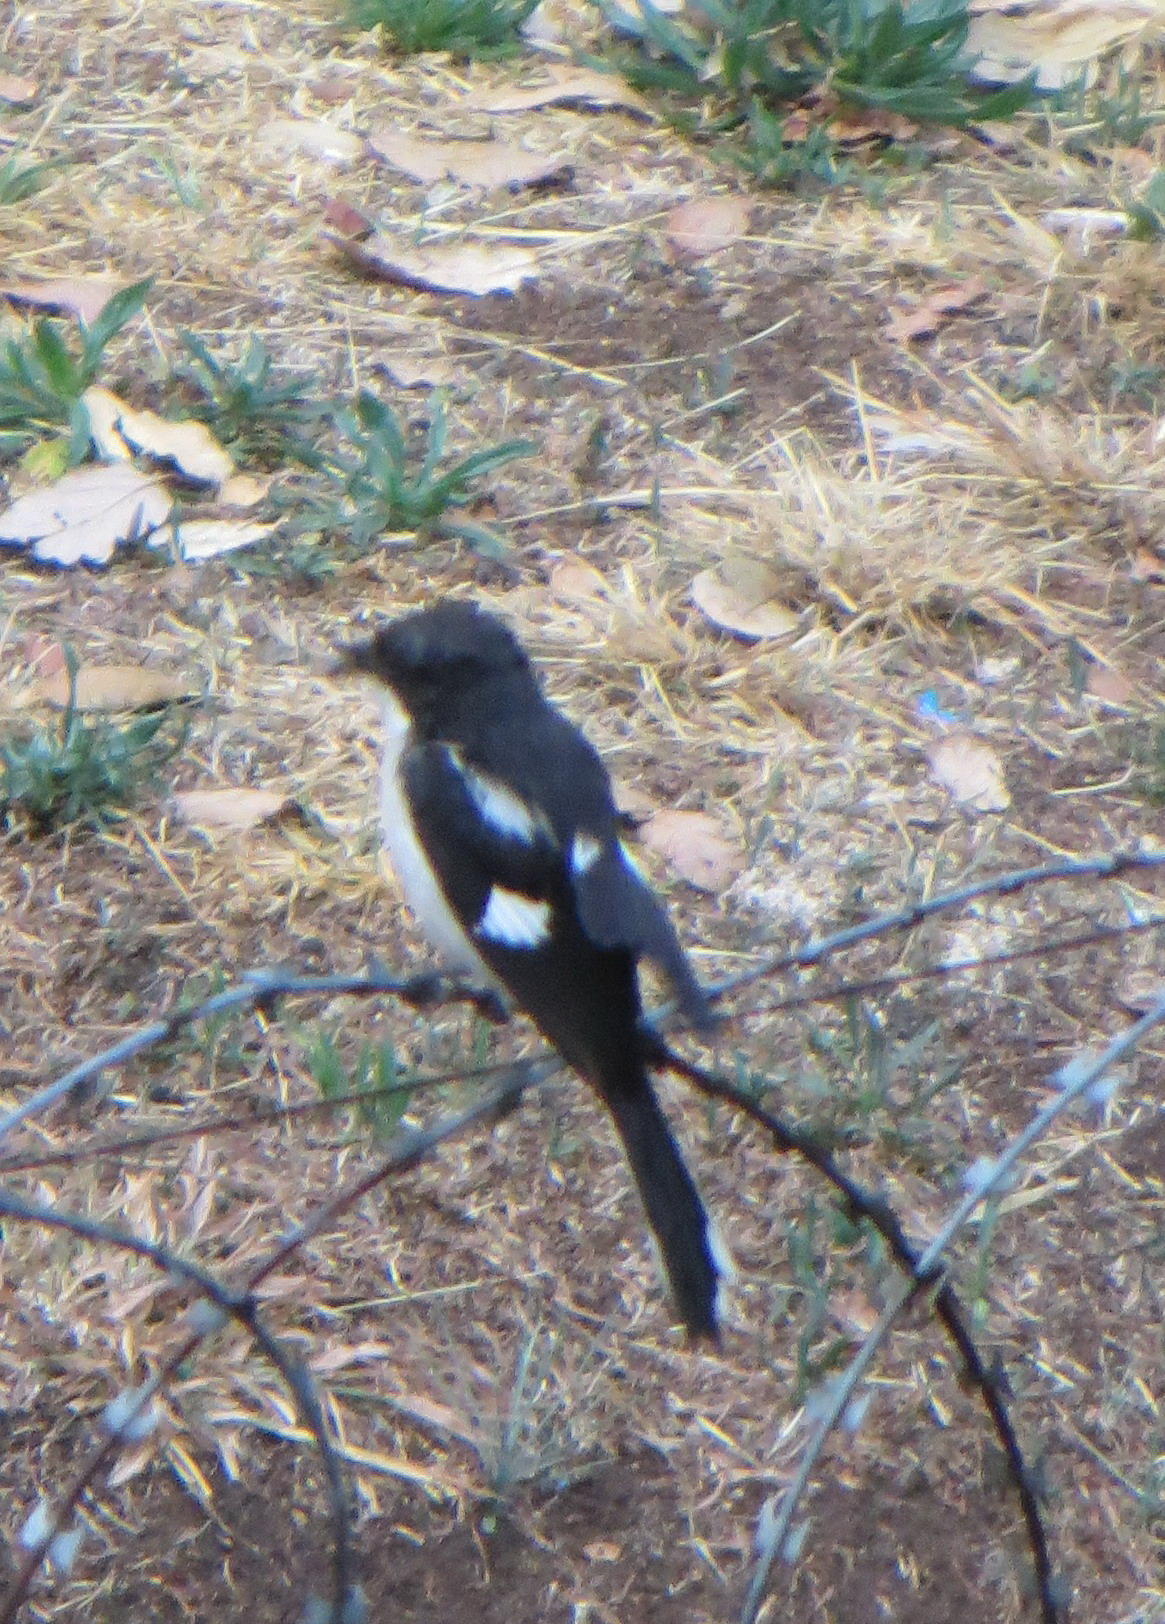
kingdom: Animalia
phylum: Chordata
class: Aves
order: Passeriformes
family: Laniidae
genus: Lanius
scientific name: Lanius collaris
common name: Southern fiscal
